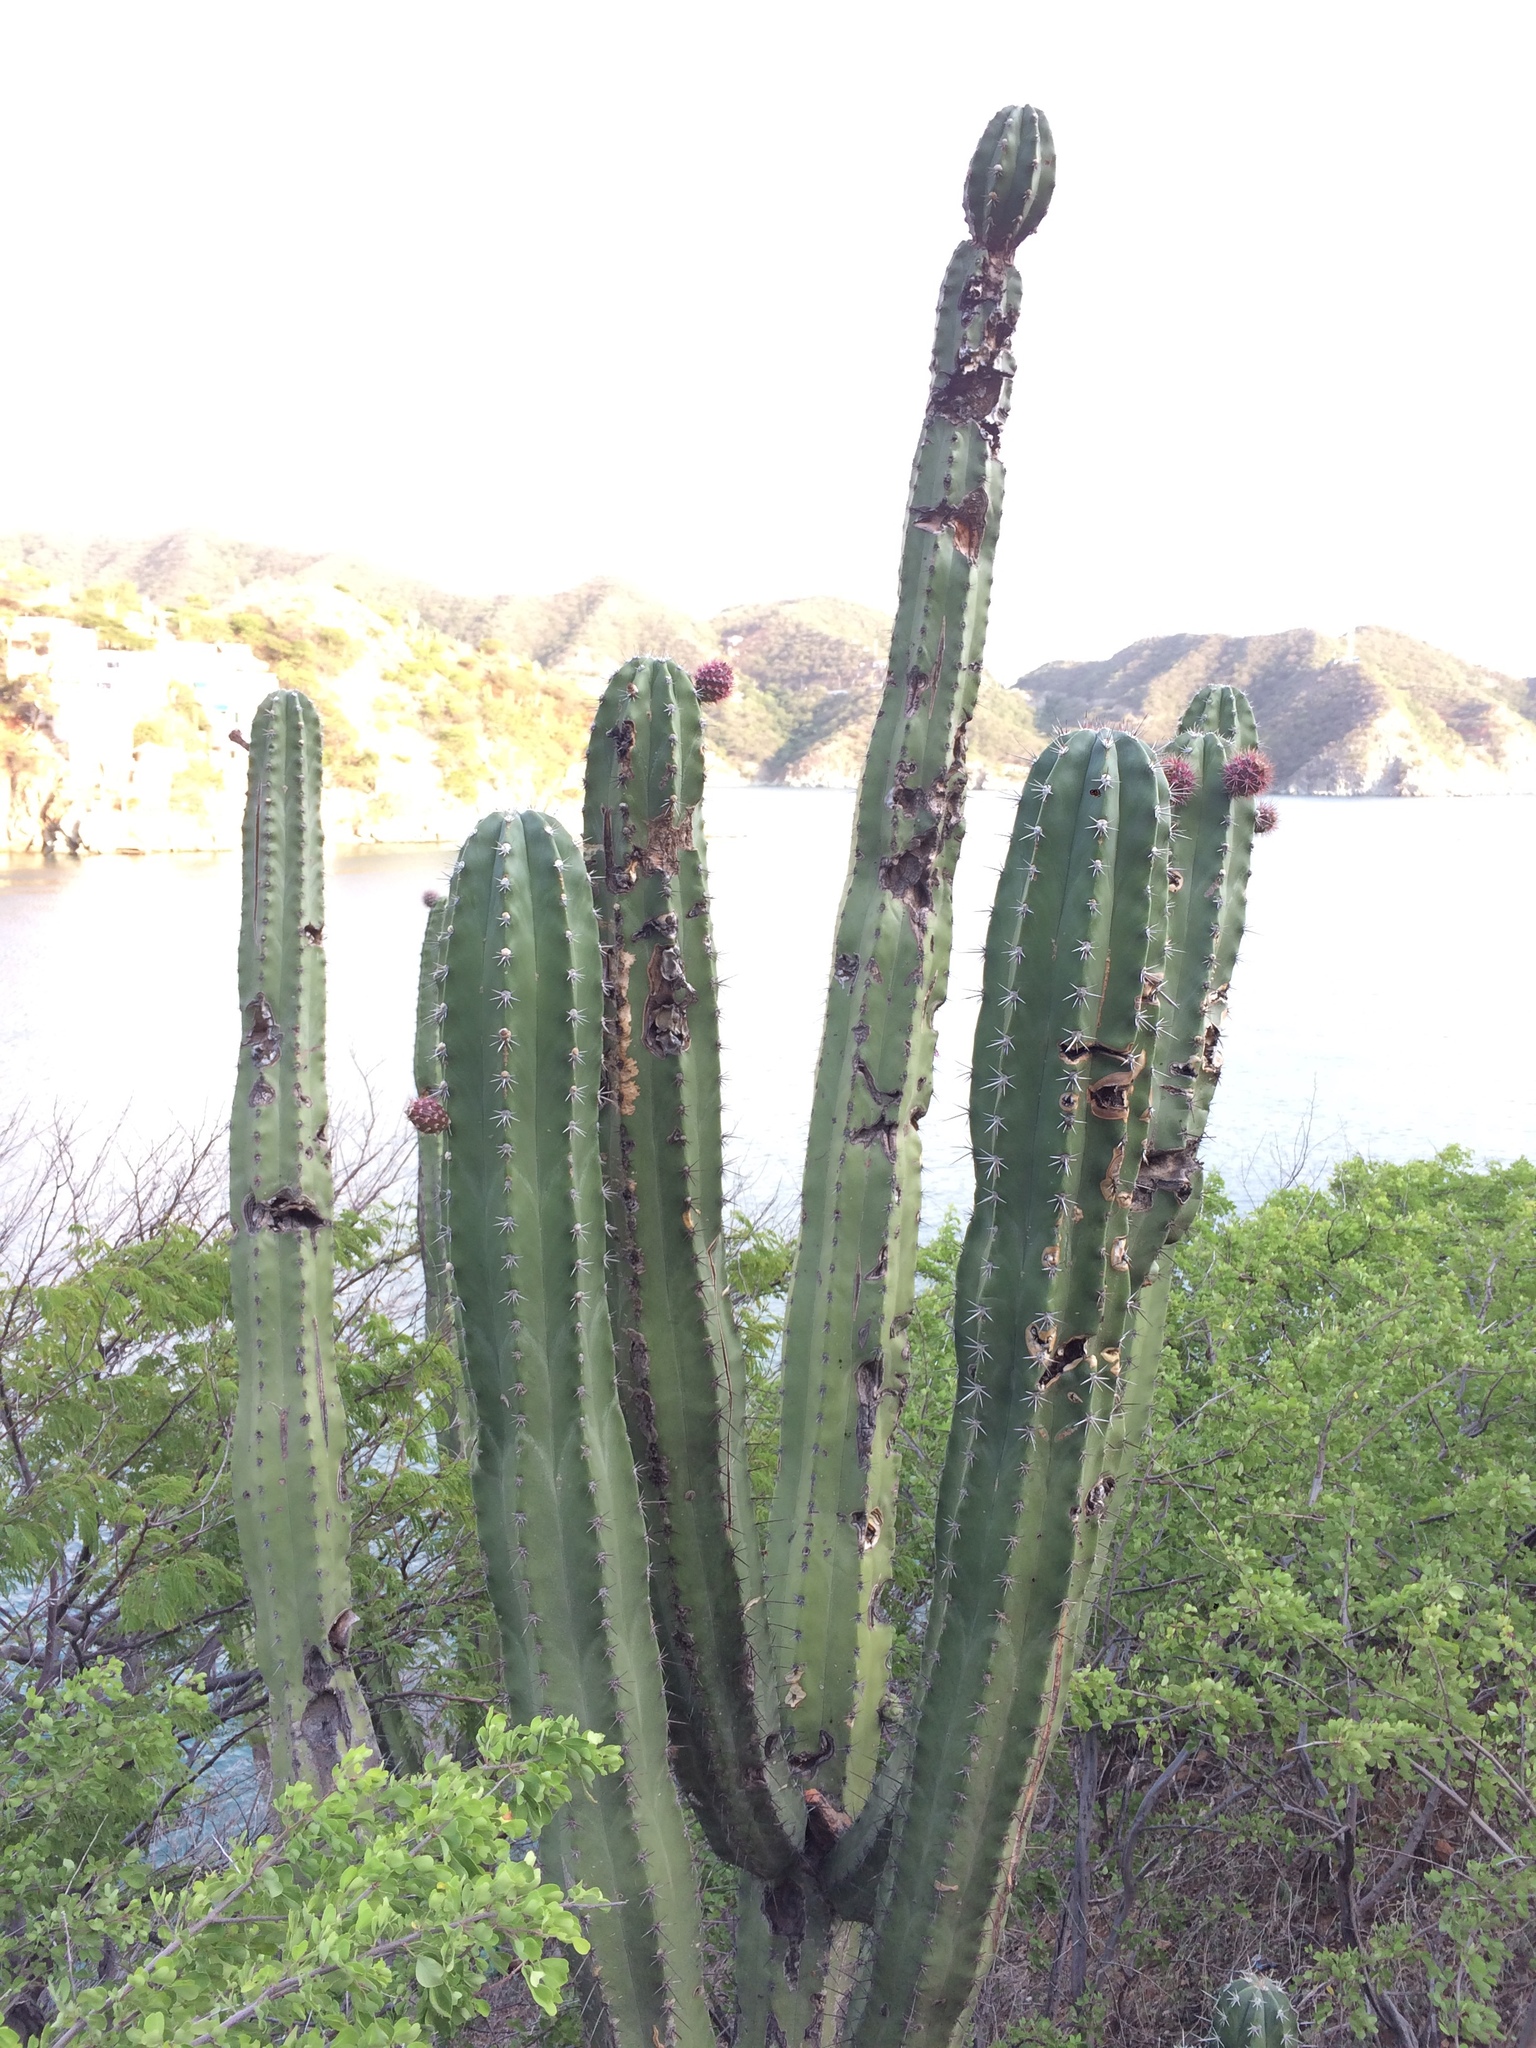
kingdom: Plantae
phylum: Tracheophyta
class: Magnoliopsida
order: Caryophyllales
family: Cactaceae
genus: Stenocereus
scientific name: Stenocereus griseus
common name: Tall candelabra cactus
